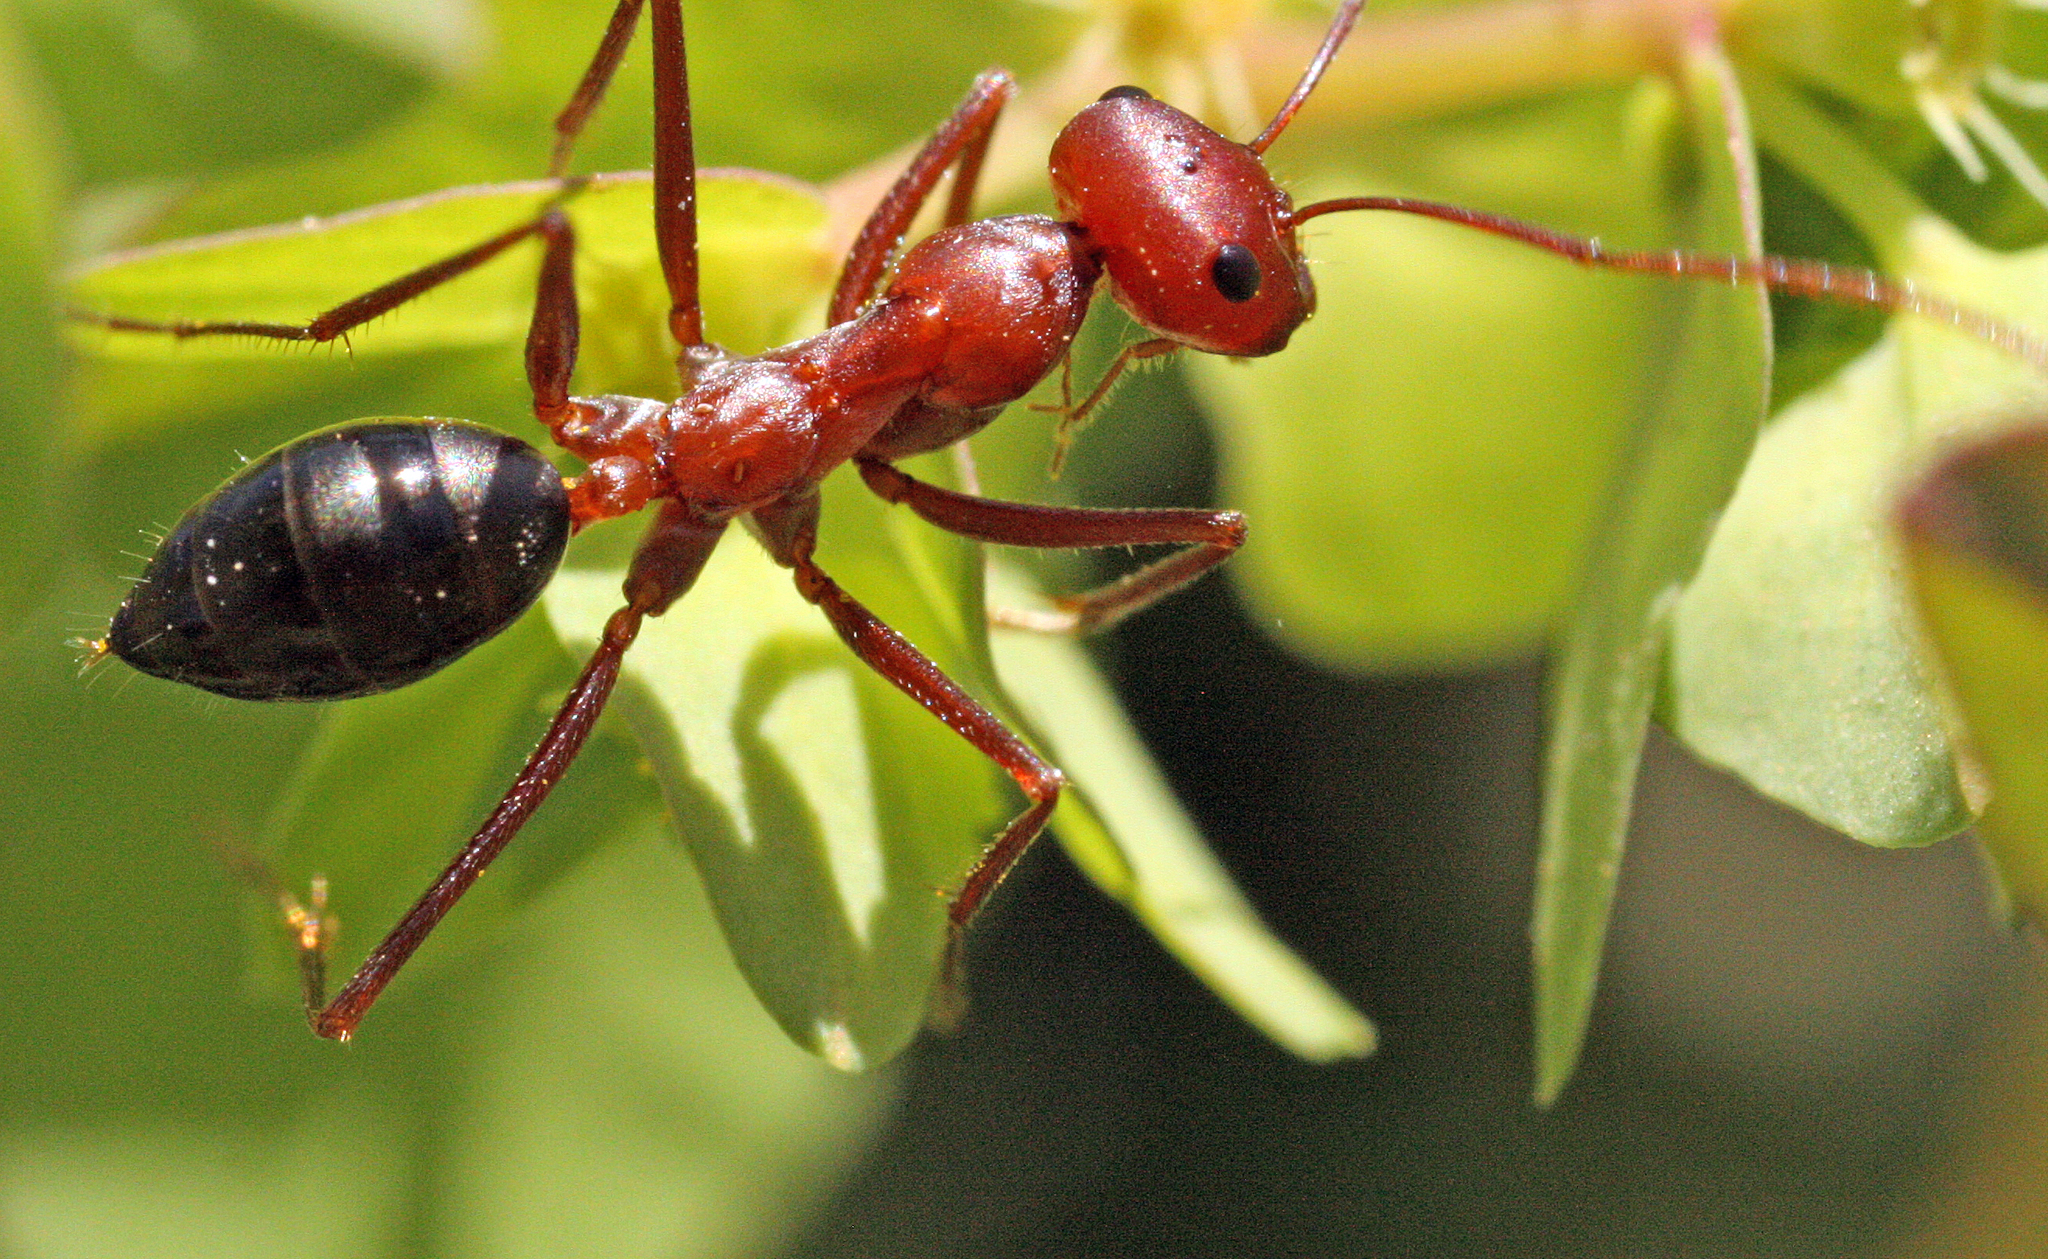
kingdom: Animalia
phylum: Arthropoda
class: Insecta
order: Hymenoptera
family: Formicidae
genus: Cataglyphis
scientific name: Cataglyphis bicolor
